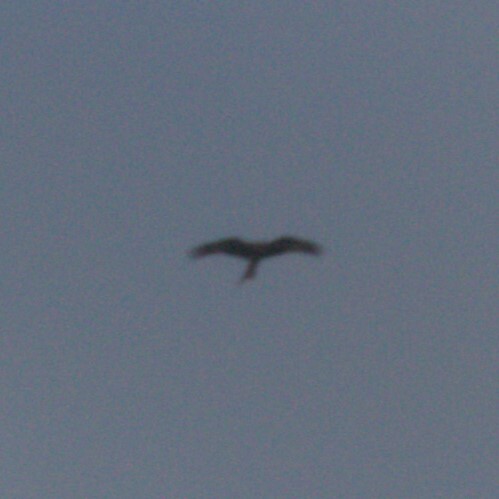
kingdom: Animalia
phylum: Chordata
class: Aves
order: Accipitriformes
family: Accipitridae
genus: Milvus
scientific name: Milvus milvus
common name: Red kite
